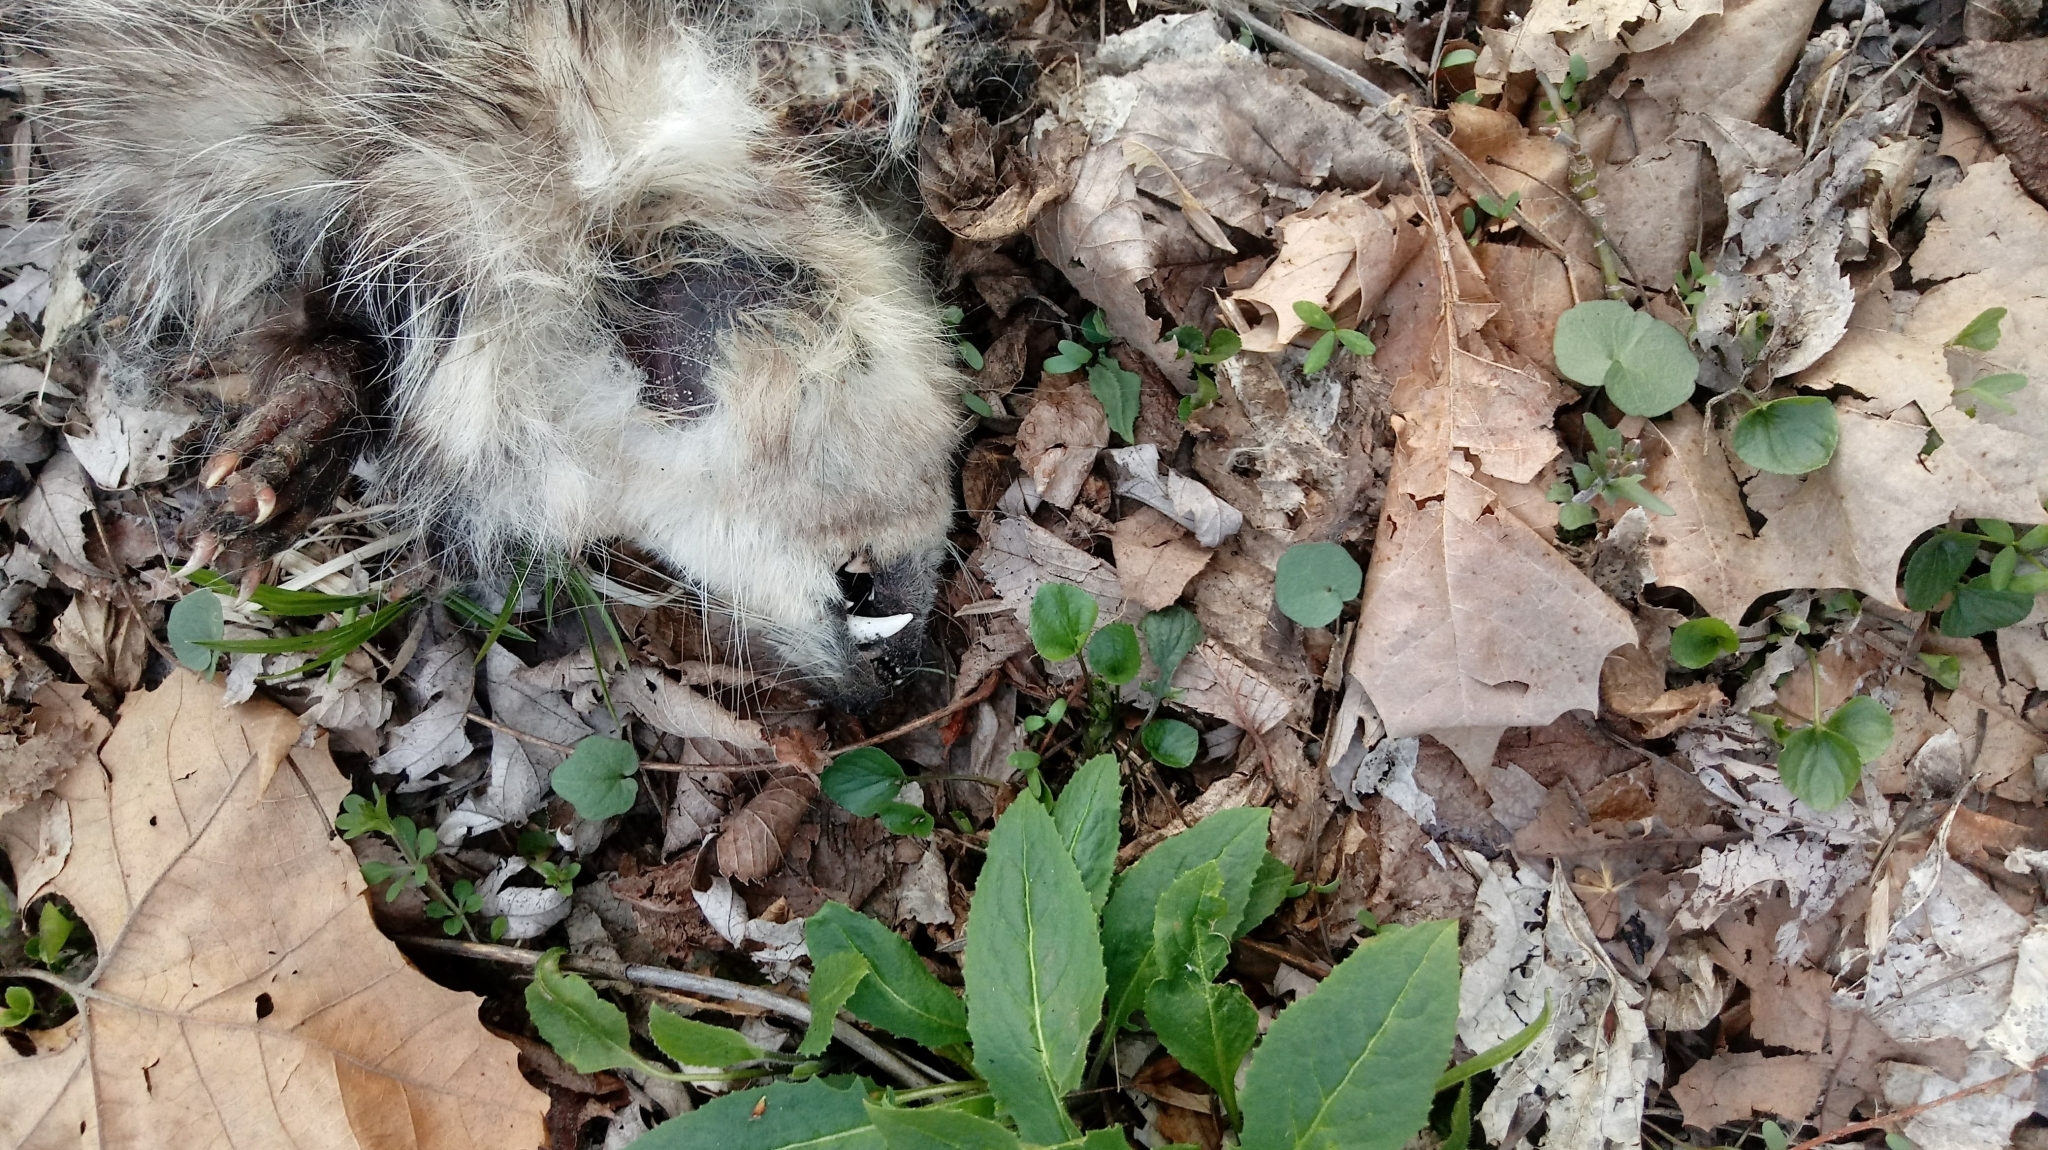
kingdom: Animalia
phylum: Chordata
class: Mammalia
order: Didelphimorphia
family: Didelphidae
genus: Didelphis
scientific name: Didelphis virginiana
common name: Virginia opossum
